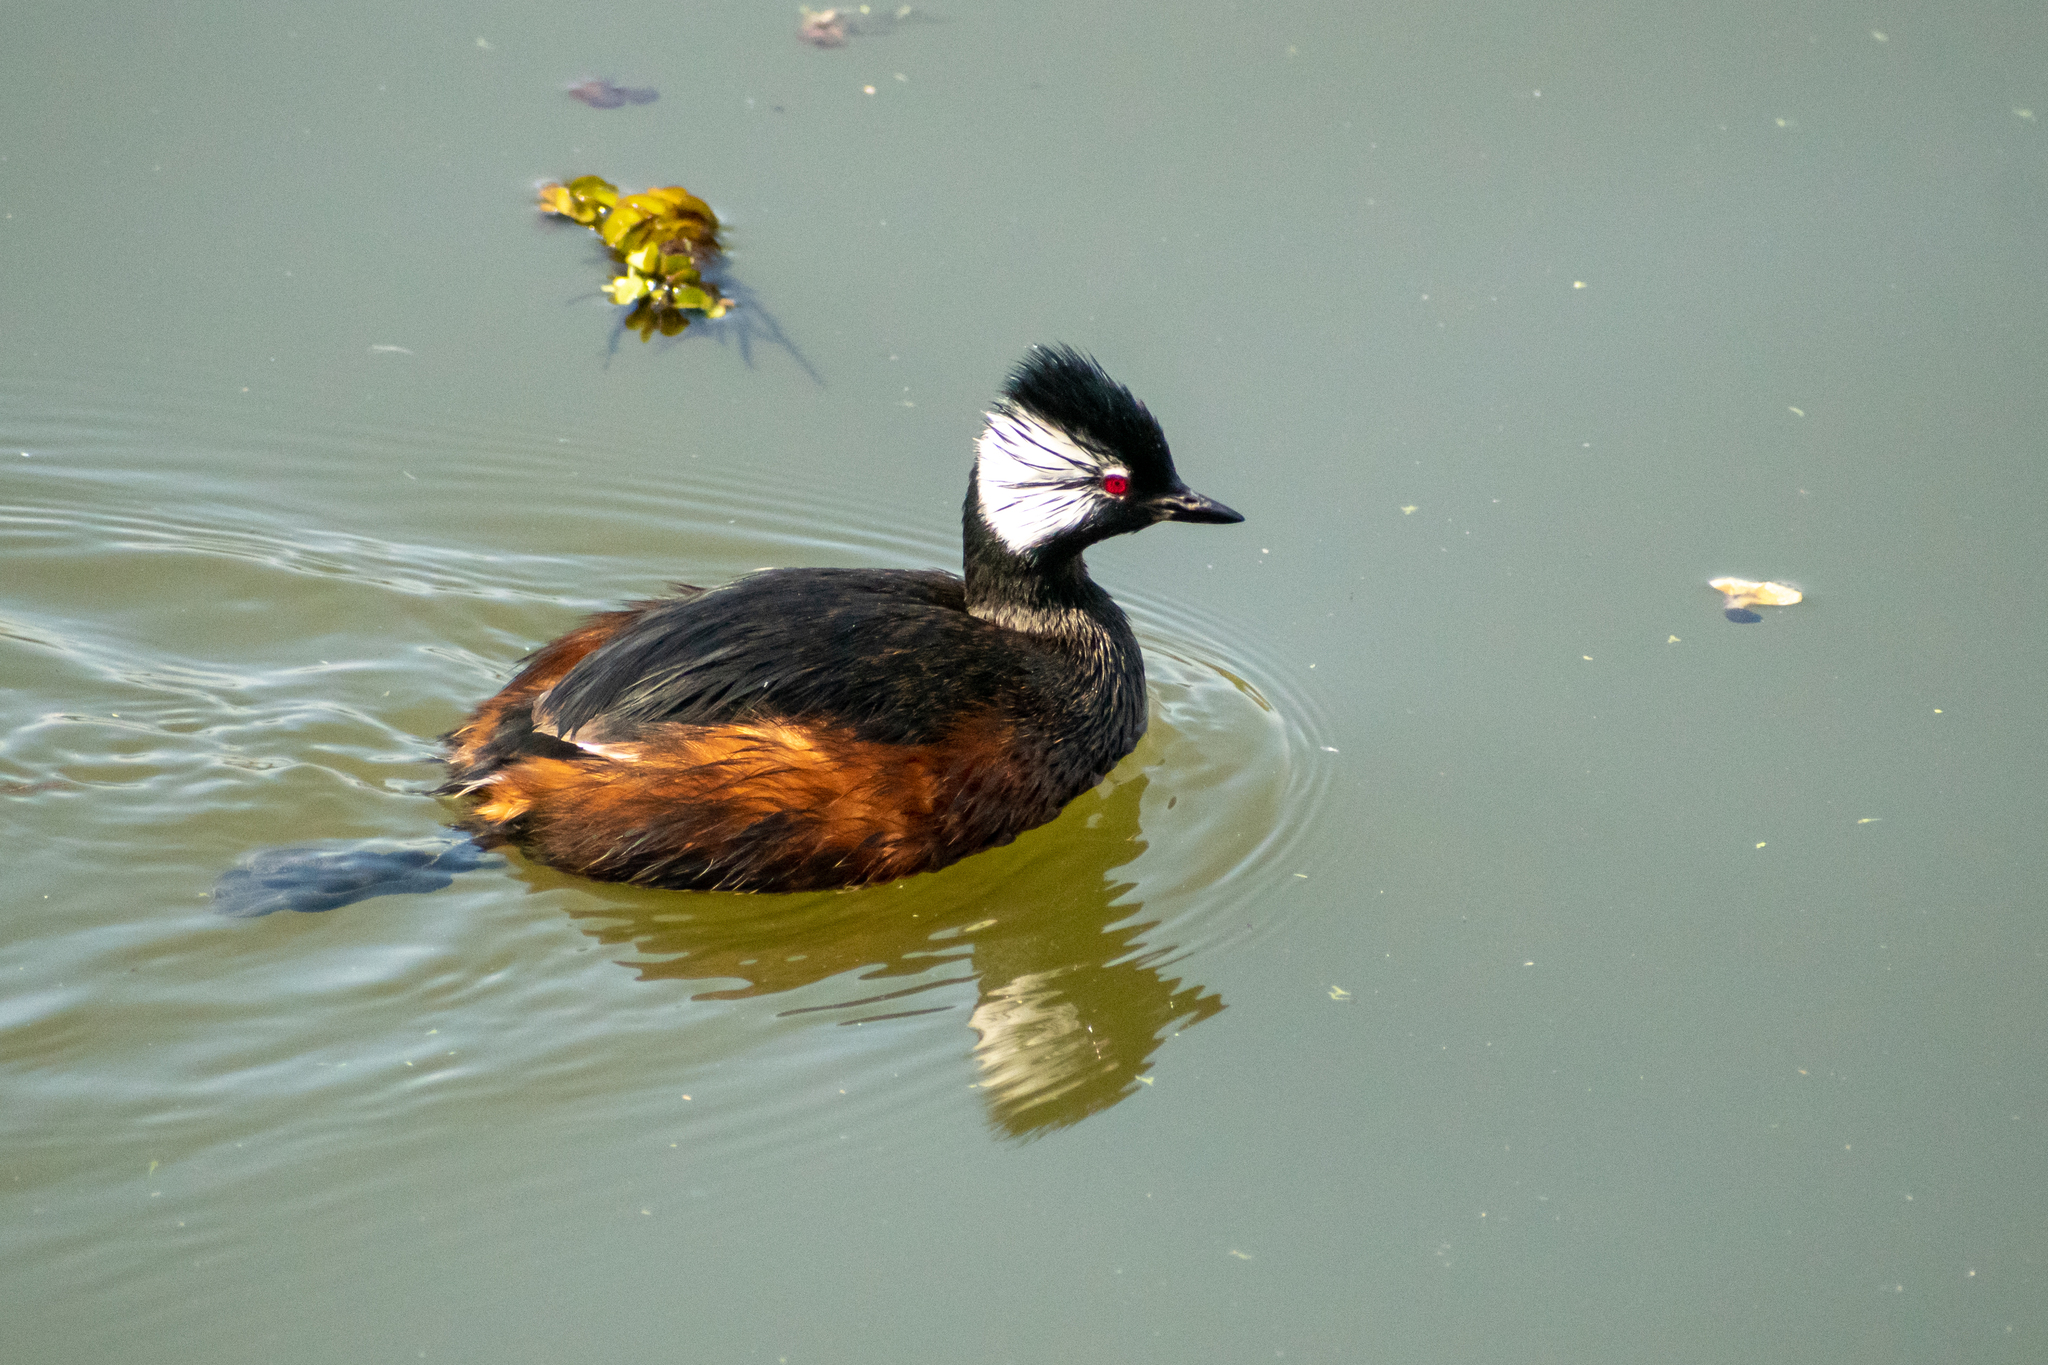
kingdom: Animalia
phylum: Chordata
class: Aves
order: Podicipediformes
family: Podicipedidae
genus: Rollandia
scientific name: Rollandia rolland
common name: White-tufted grebe
